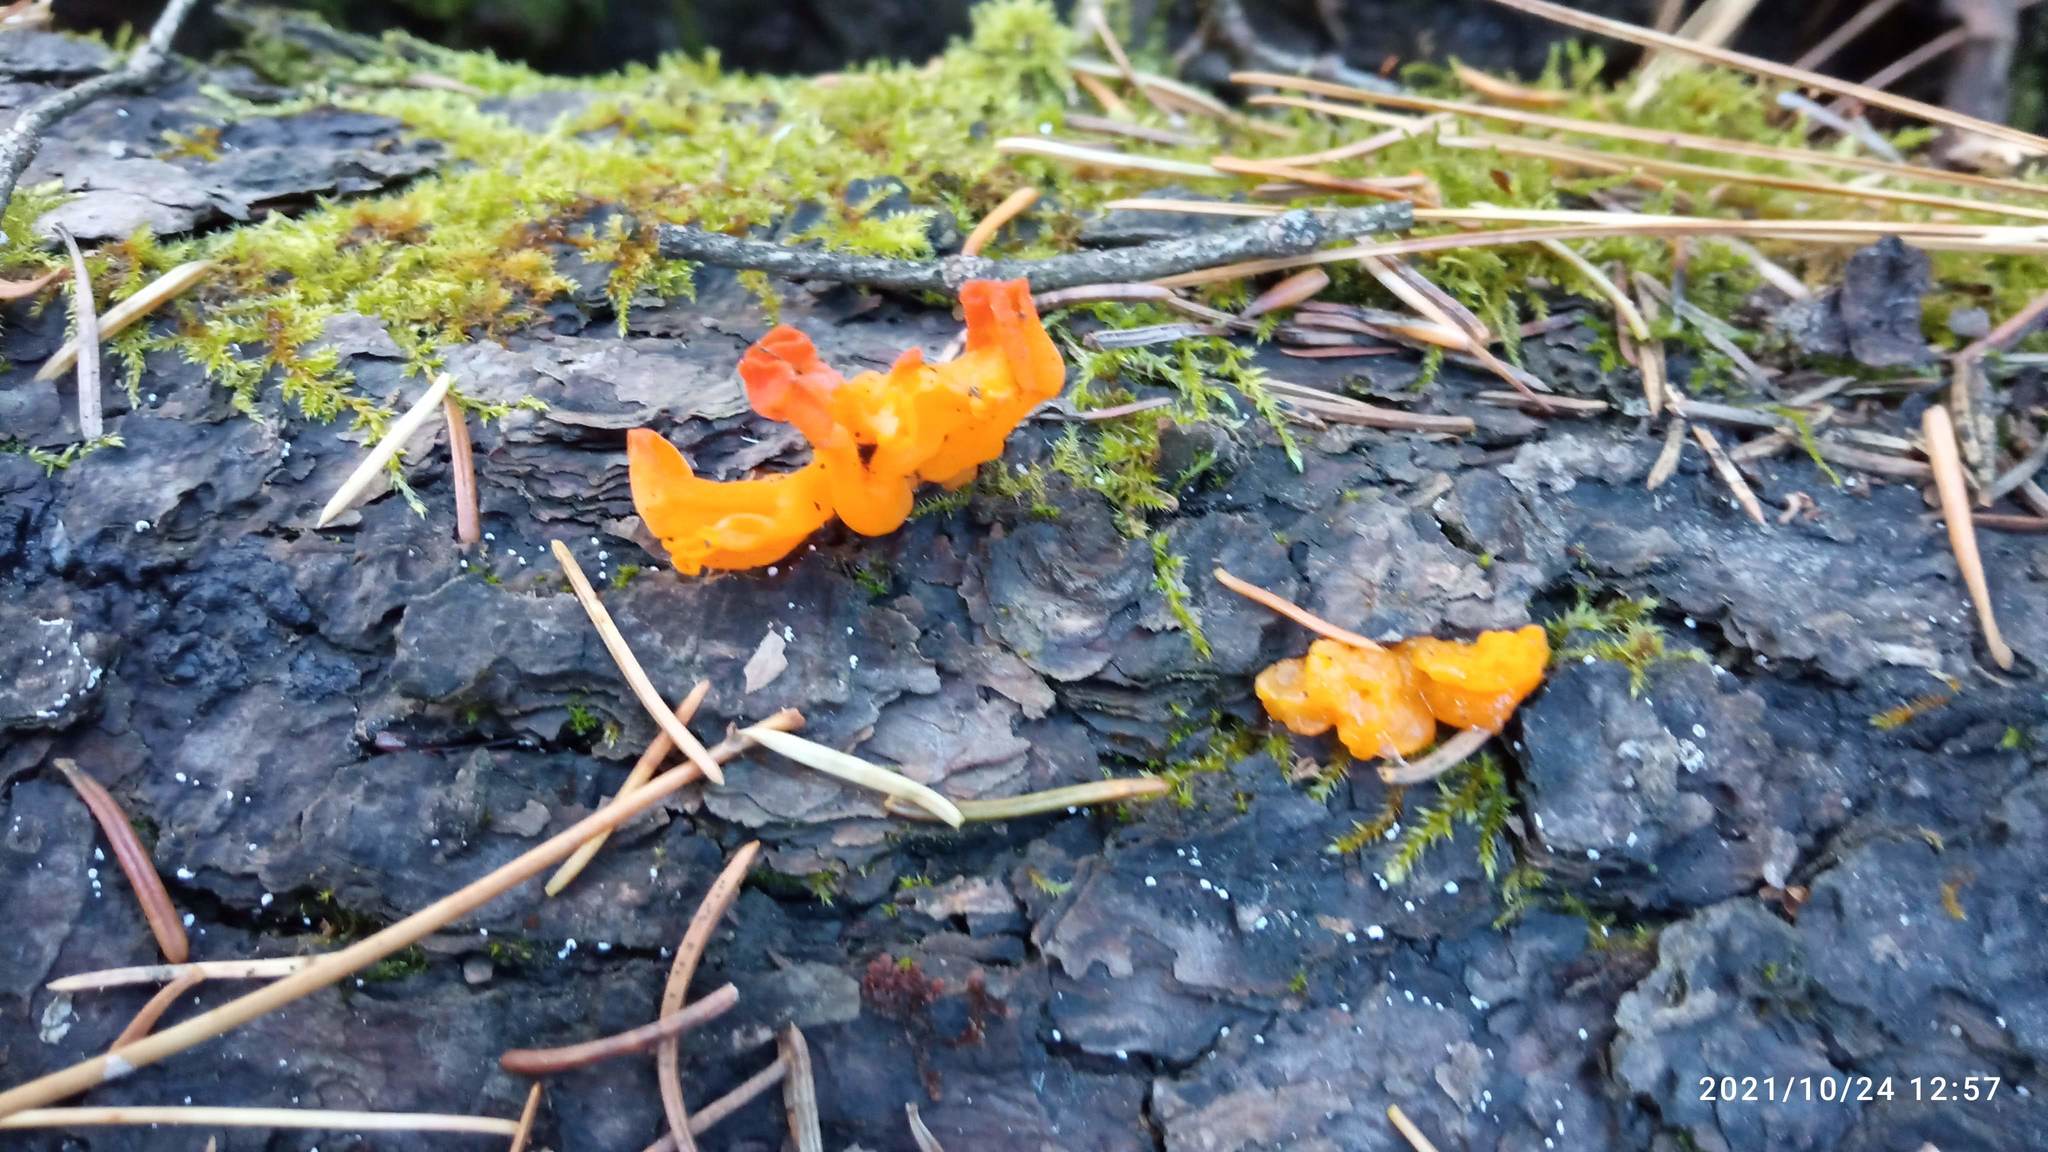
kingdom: Fungi
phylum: Basidiomycota
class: Dacrymycetes
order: Dacrymycetales
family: Dacrymycetaceae
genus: Dacrymyces
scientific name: Dacrymyces chrysospermus
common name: Orange jelly spot
